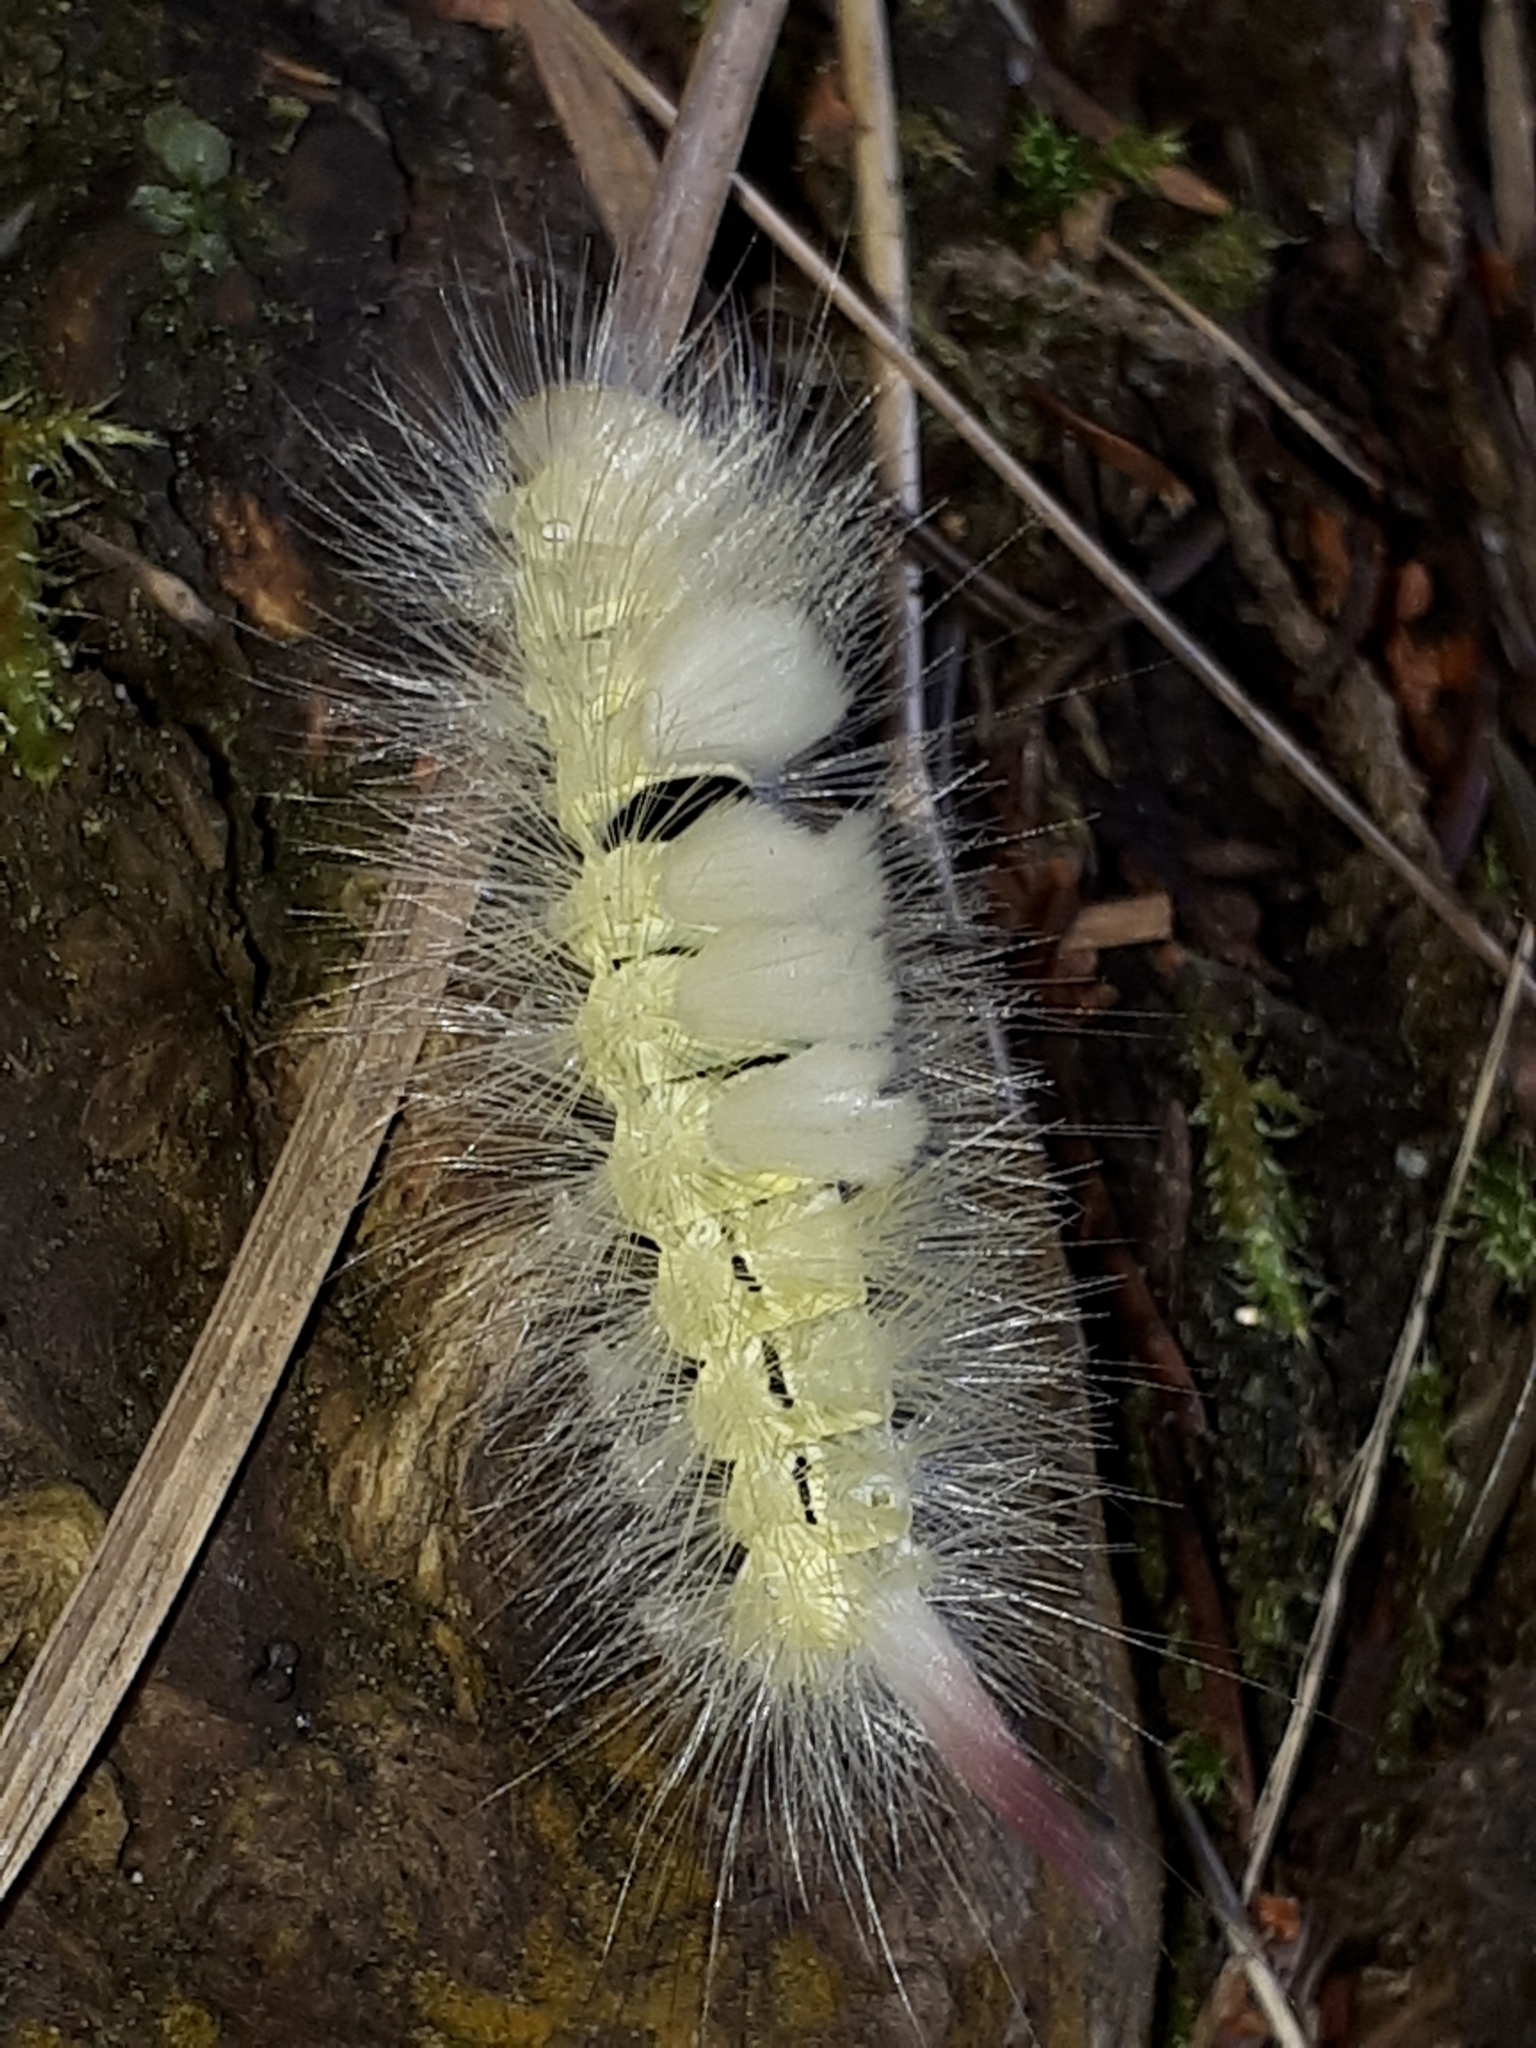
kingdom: Animalia
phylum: Arthropoda
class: Insecta
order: Lepidoptera
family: Erebidae
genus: Calliteara
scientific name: Calliteara pudibunda
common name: Pale tussock
